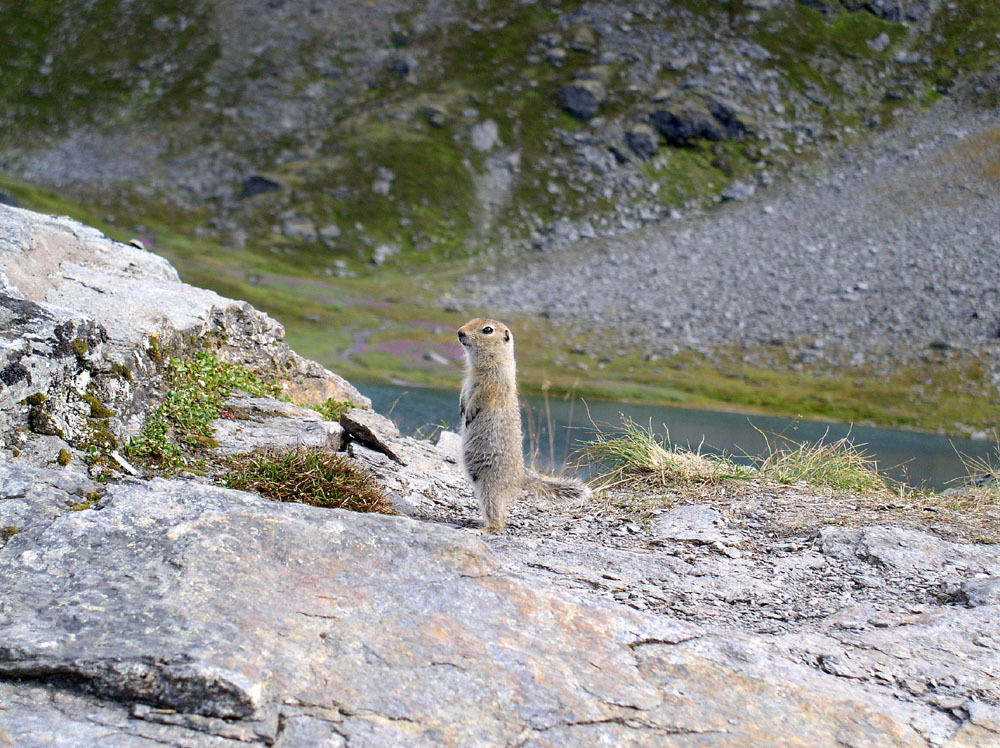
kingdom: Animalia
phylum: Chordata
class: Mammalia
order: Rodentia
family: Sciuridae
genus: Urocitellus
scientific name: Urocitellus parryii
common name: Arctic ground squirrel
